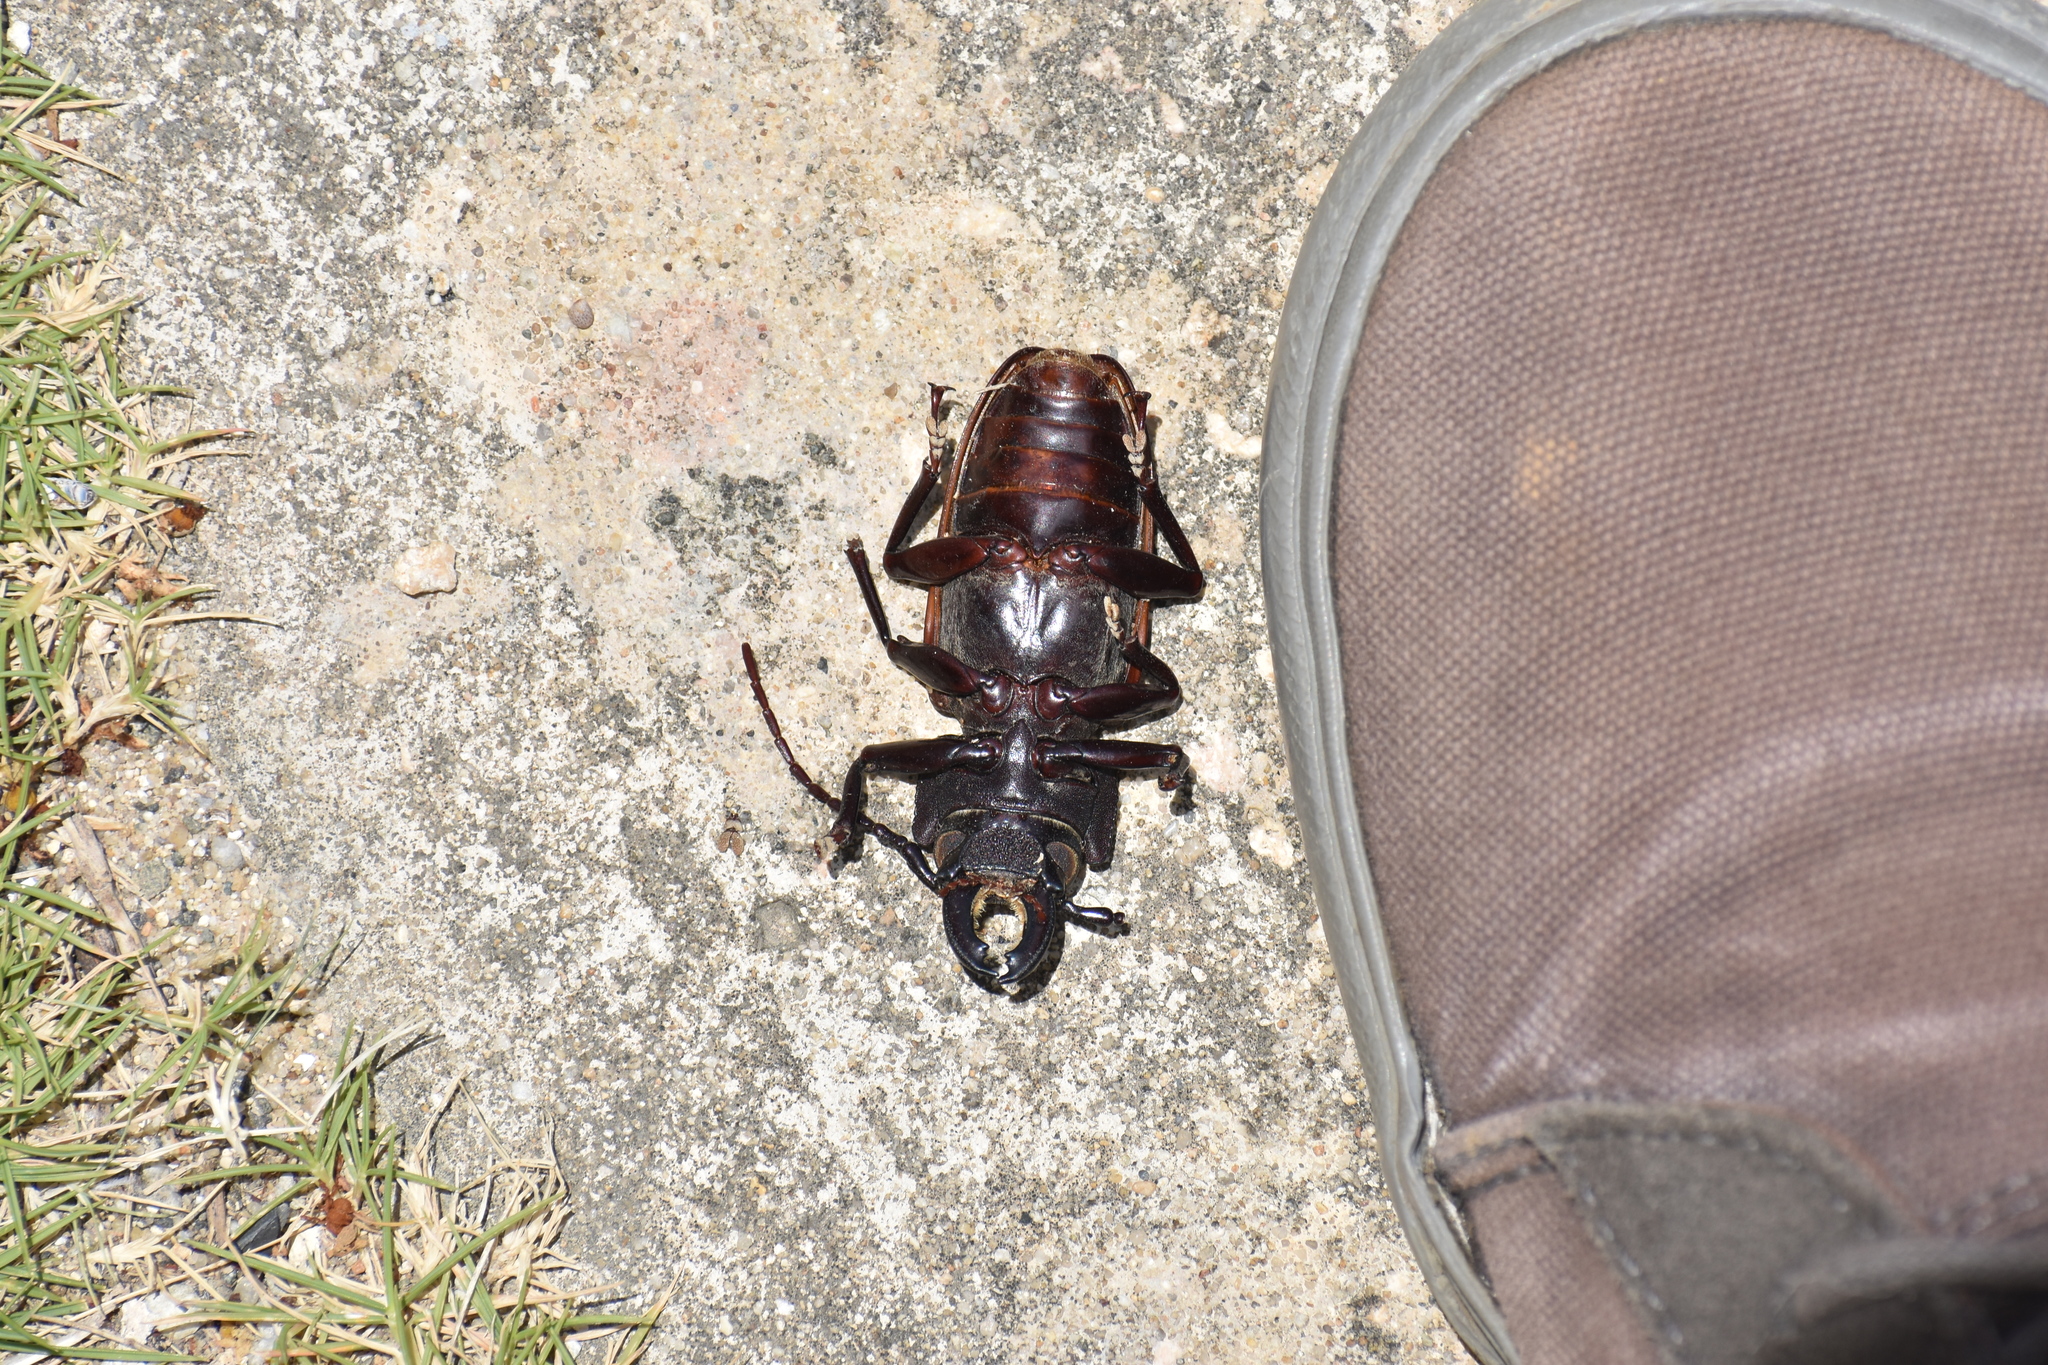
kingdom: Animalia
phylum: Arthropoda
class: Insecta
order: Coleoptera
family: Cerambycidae
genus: Mallodon
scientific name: Mallodon chevrolatii
